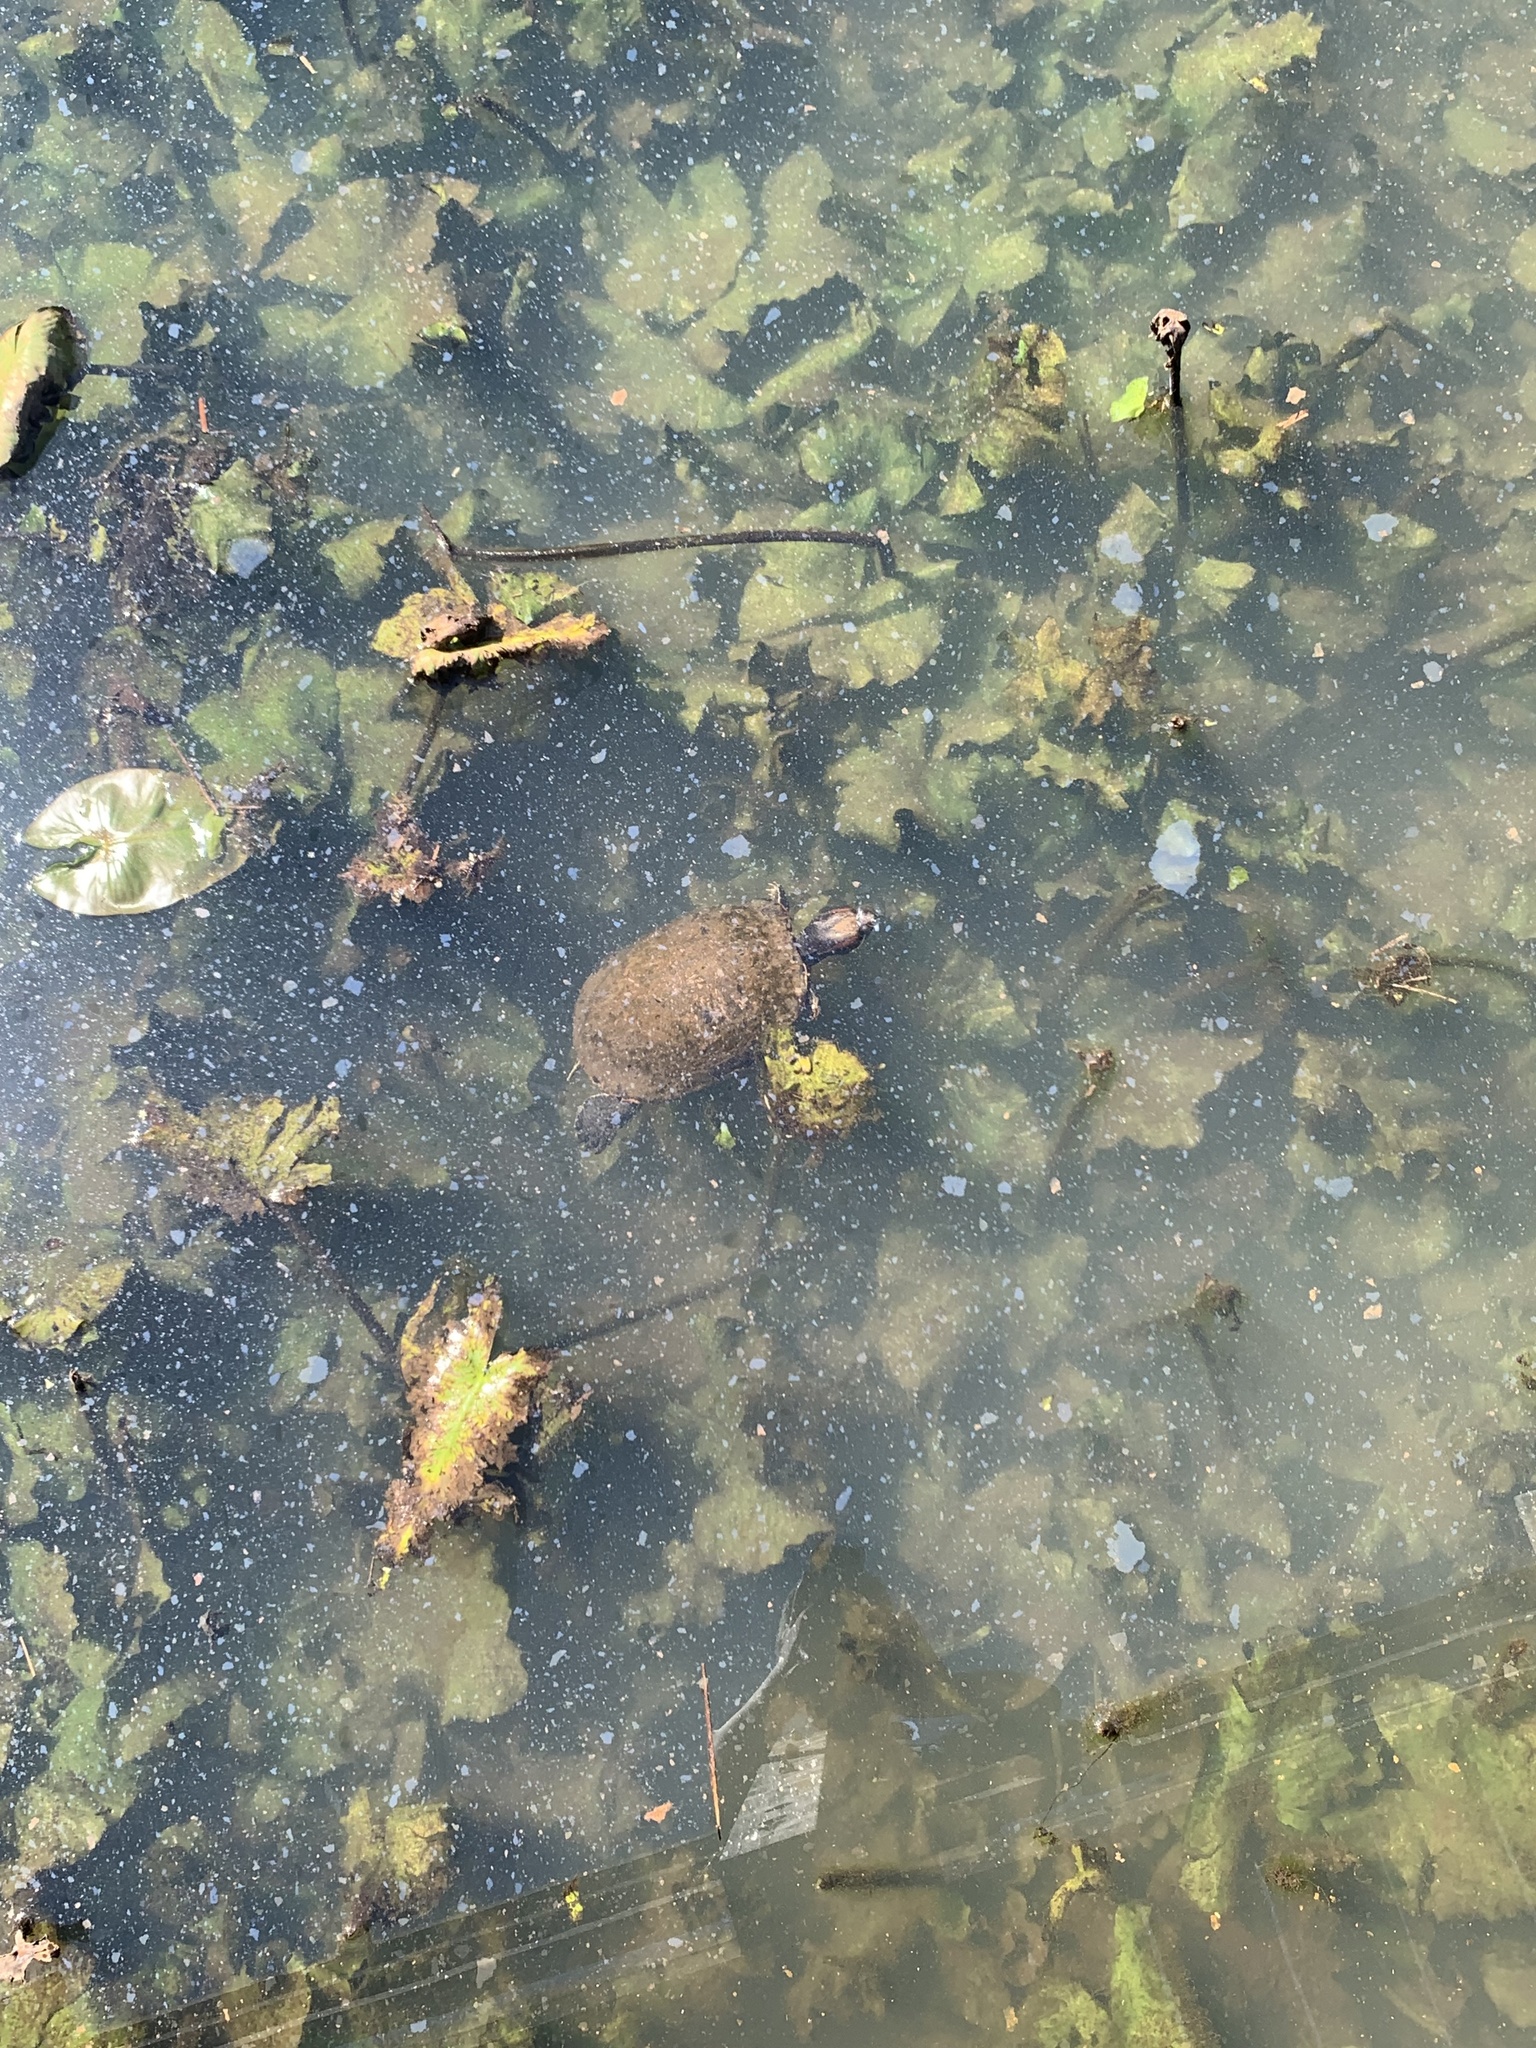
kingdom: Animalia
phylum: Chordata
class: Testudines
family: Emydidae
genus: Trachemys
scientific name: Trachemys scripta
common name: Slider
